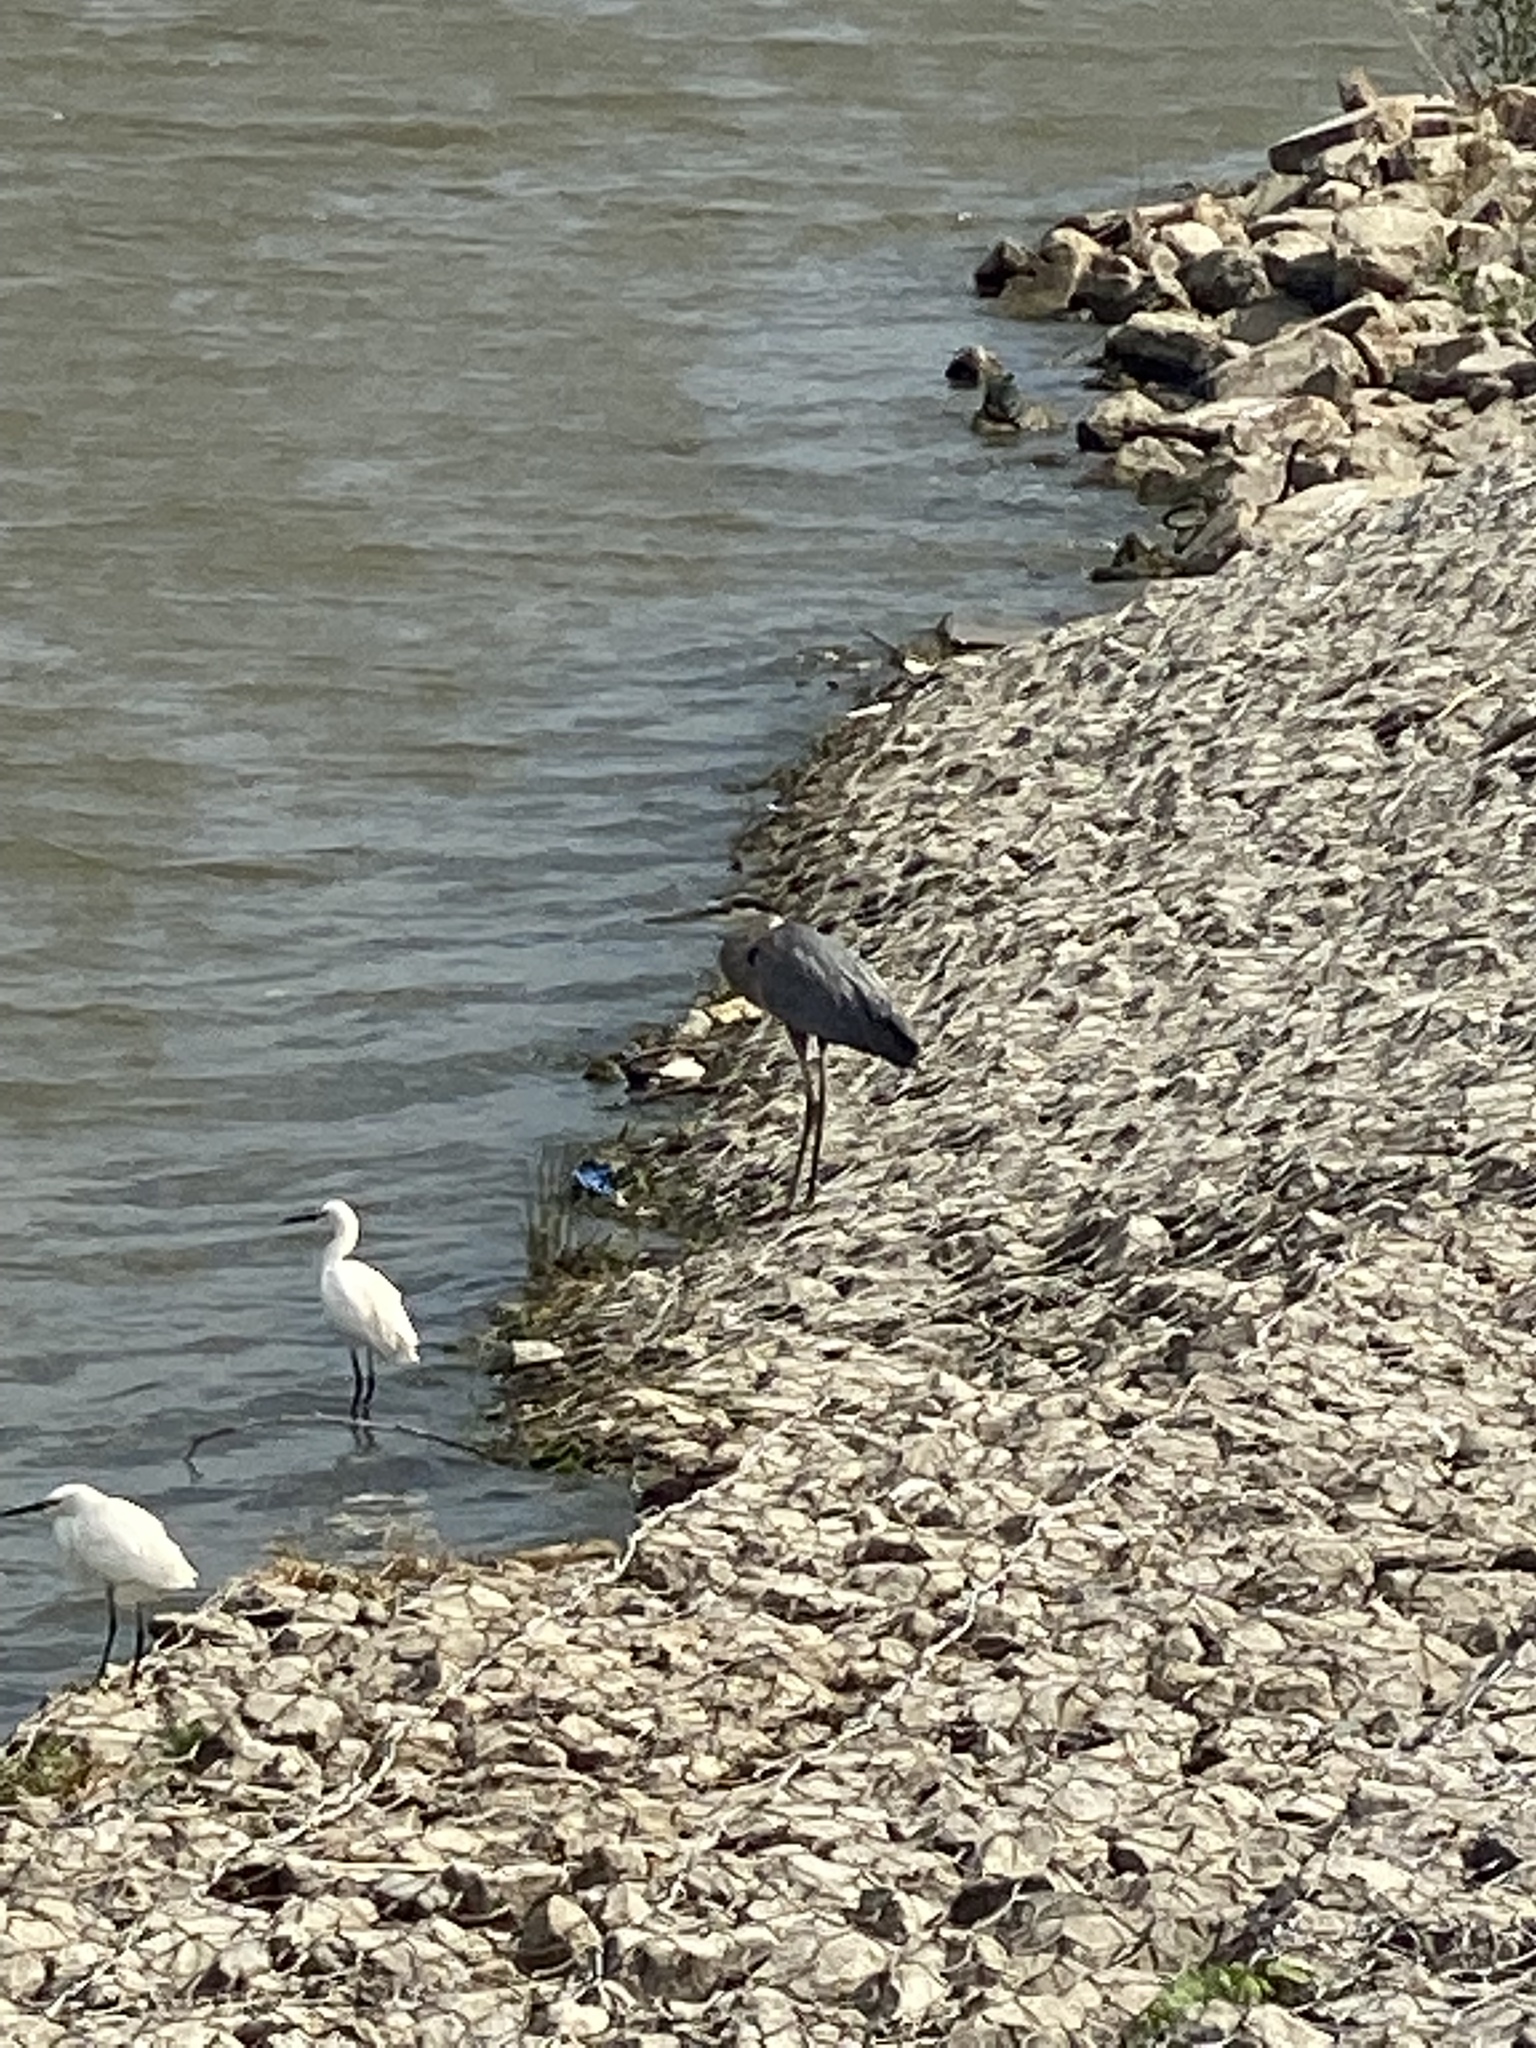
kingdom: Animalia
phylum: Chordata
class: Aves
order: Pelecaniformes
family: Ardeidae
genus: Egretta
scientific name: Egretta thula
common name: Snowy egret
